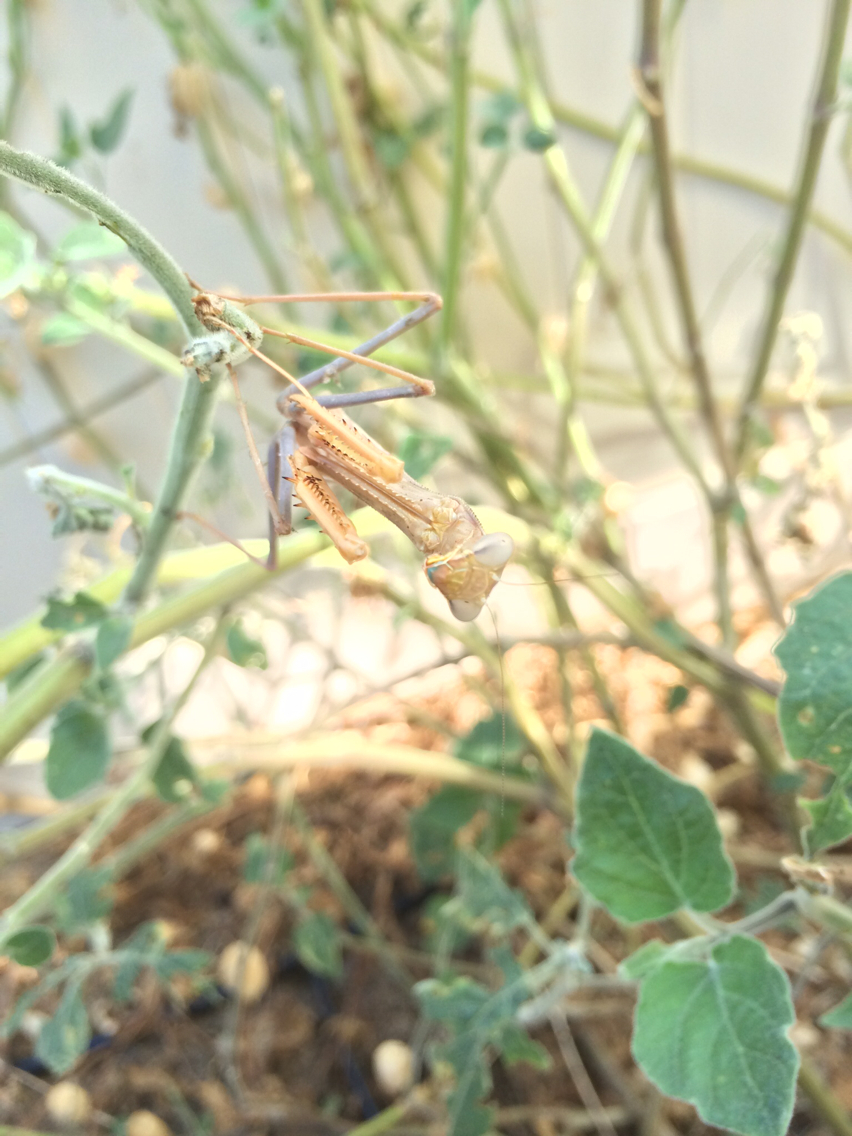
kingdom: Animalia
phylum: Arthropoda
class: Insecta
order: Mantodea
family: Mantidae
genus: Stagmomantis
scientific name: Stagmomantis limbata
